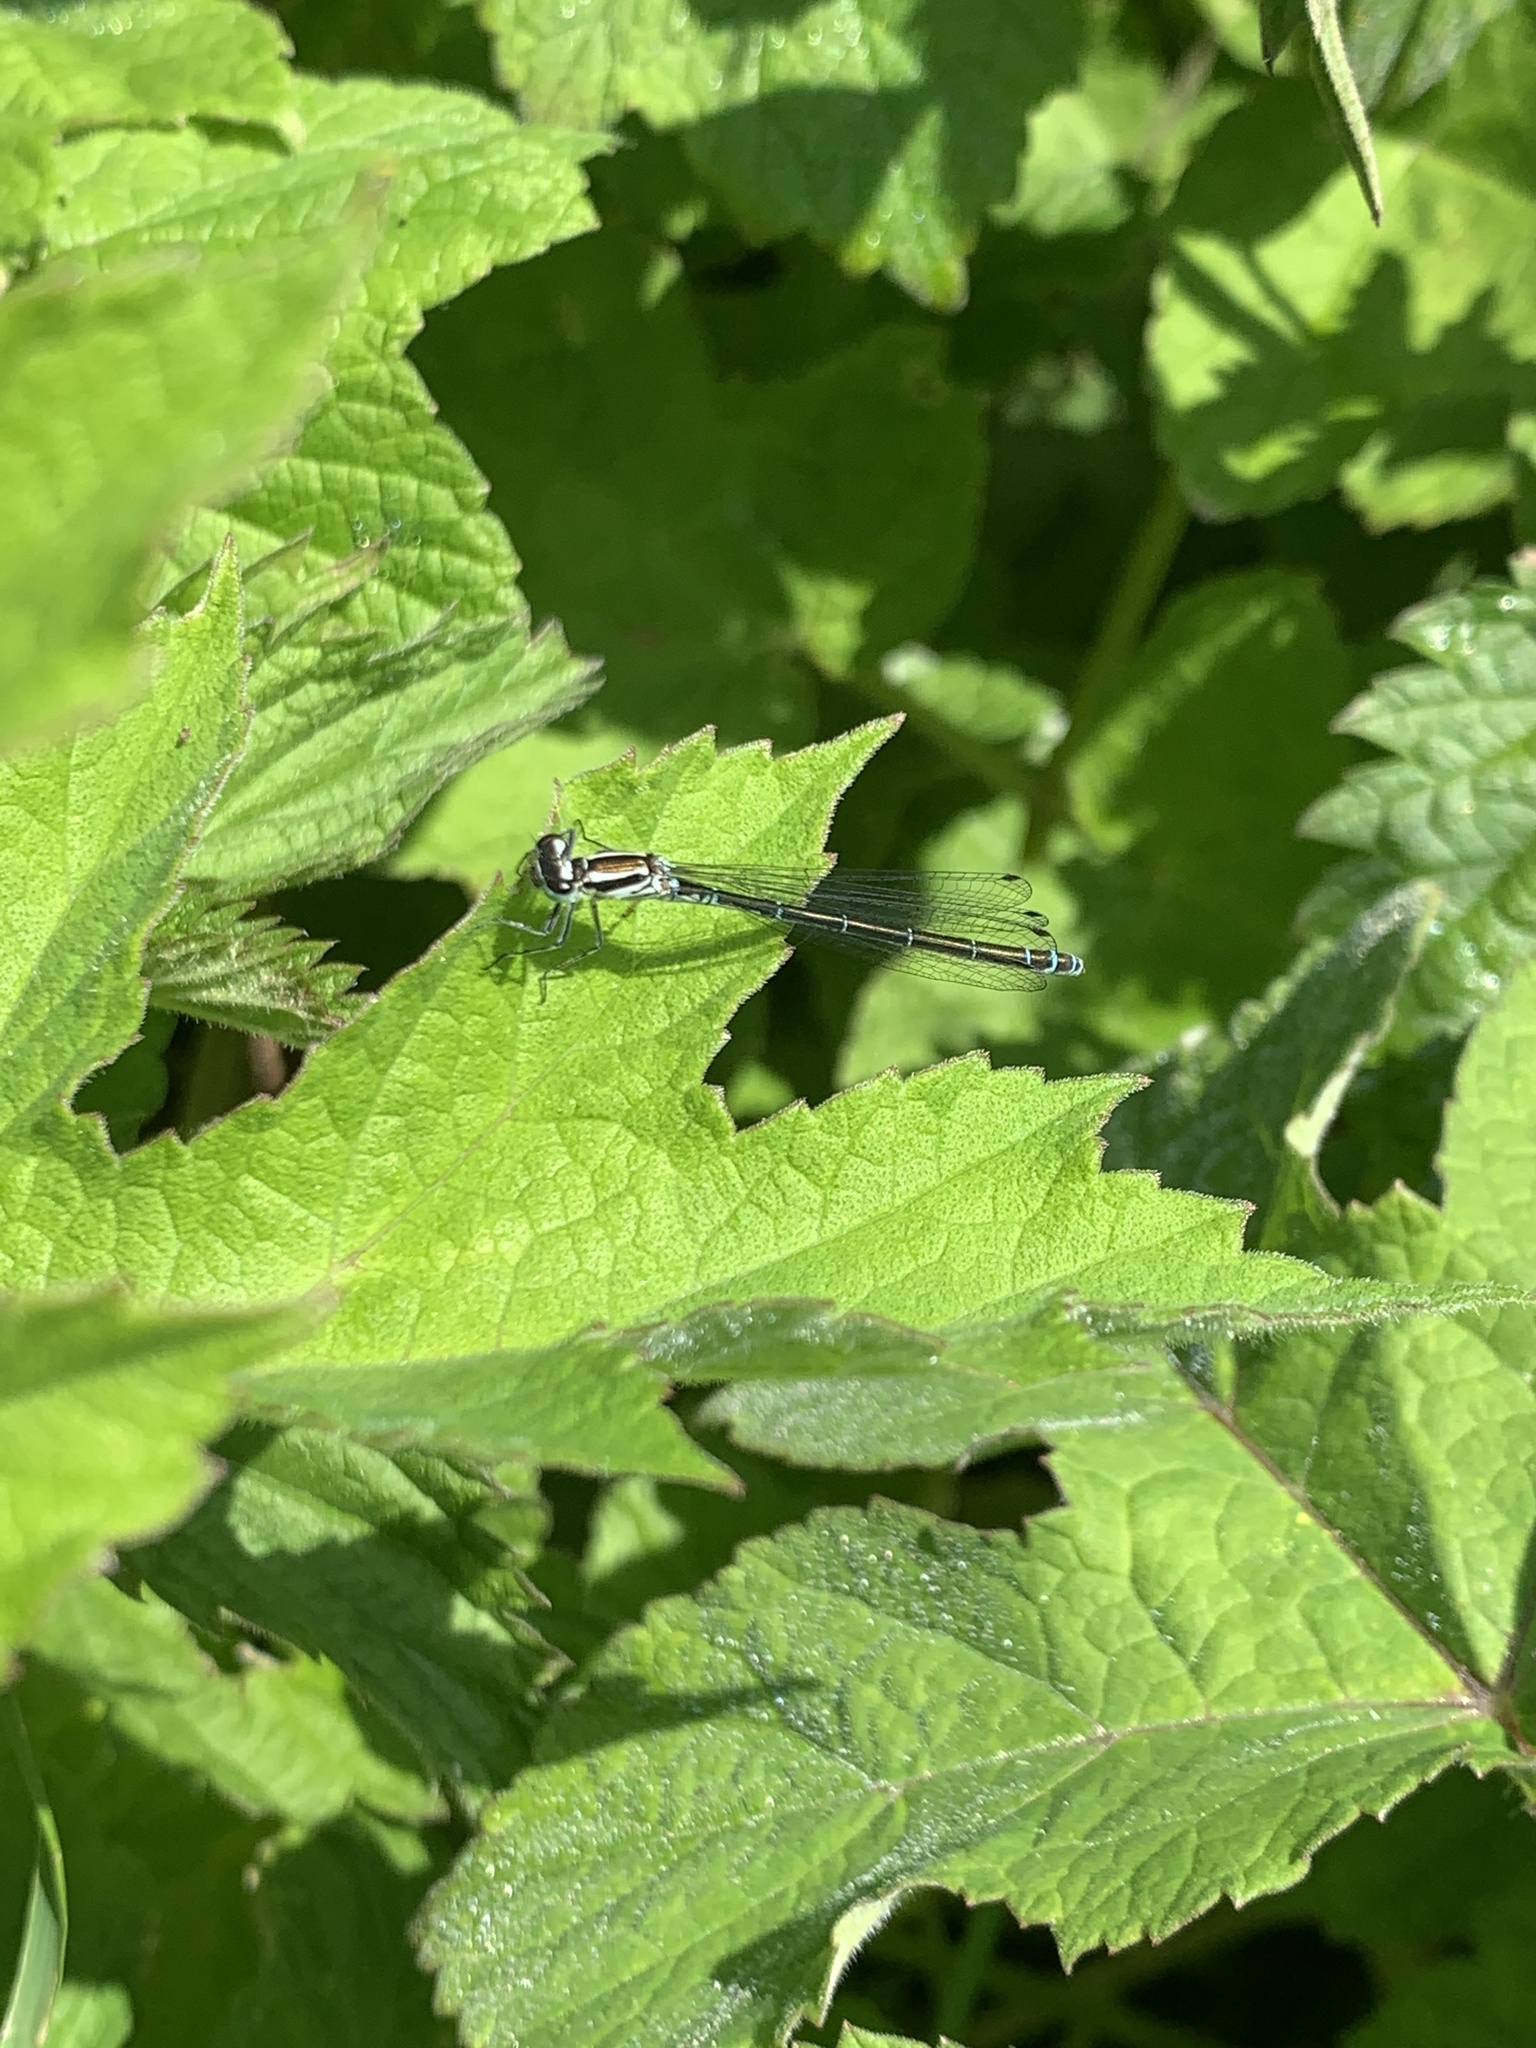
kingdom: Animalia
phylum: Arthropoda
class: Insecta
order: Odonata
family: Coenagrionidae
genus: Coenagrion
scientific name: Coenagrion puella
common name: Azure damselfly
